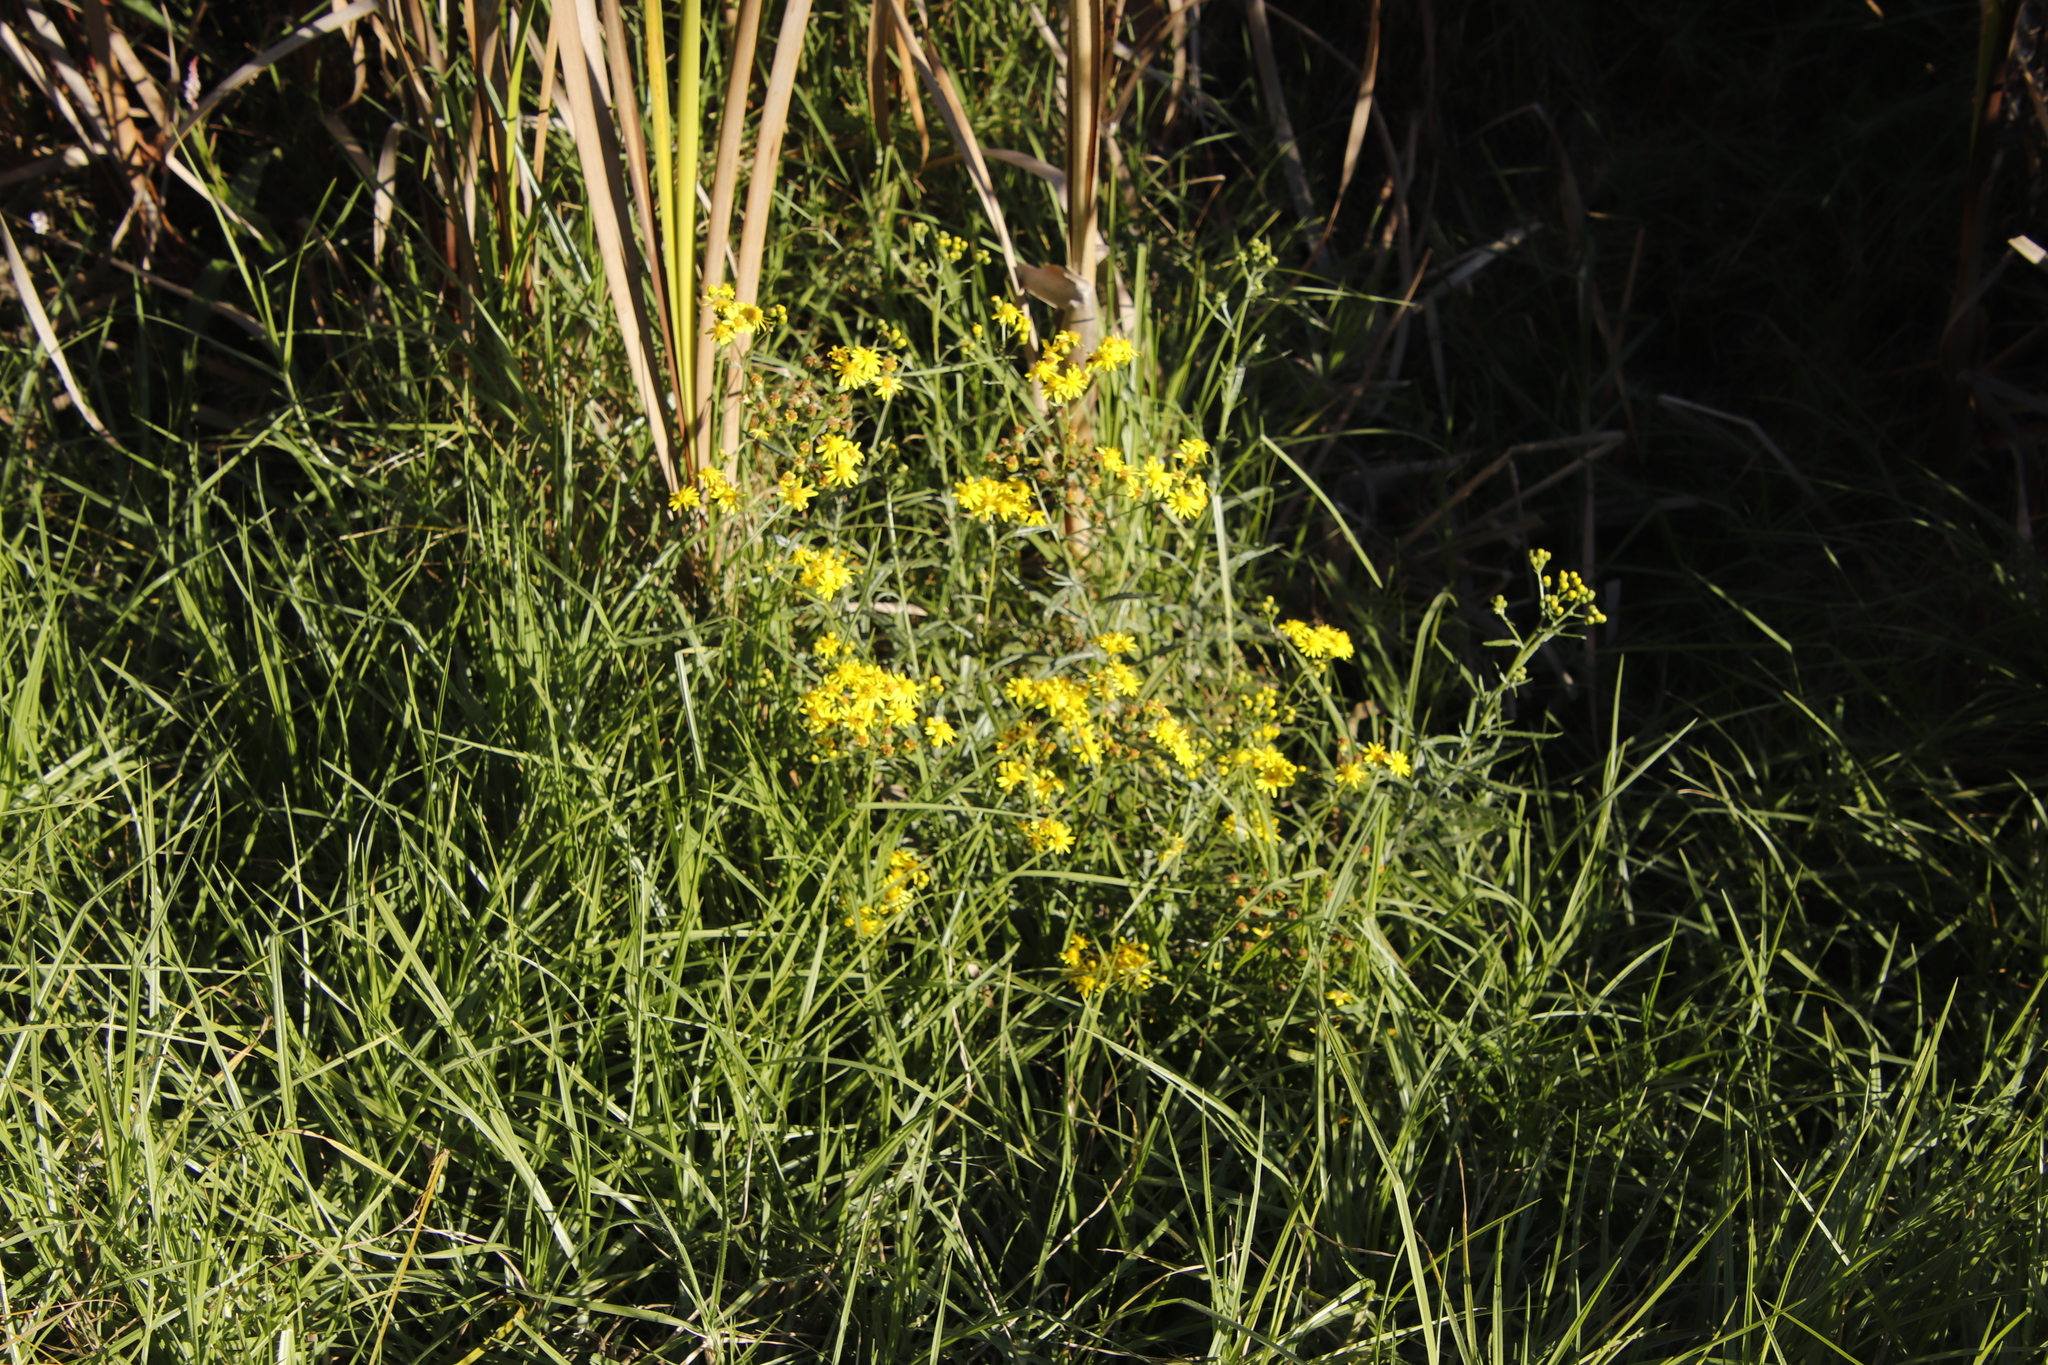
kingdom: Plantae
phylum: Tracheophyta
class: Magnoliopsida
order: Asterales
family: Asteraceae
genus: Senecio
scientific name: Senecio pterophorus
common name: Shoddy ragwort
